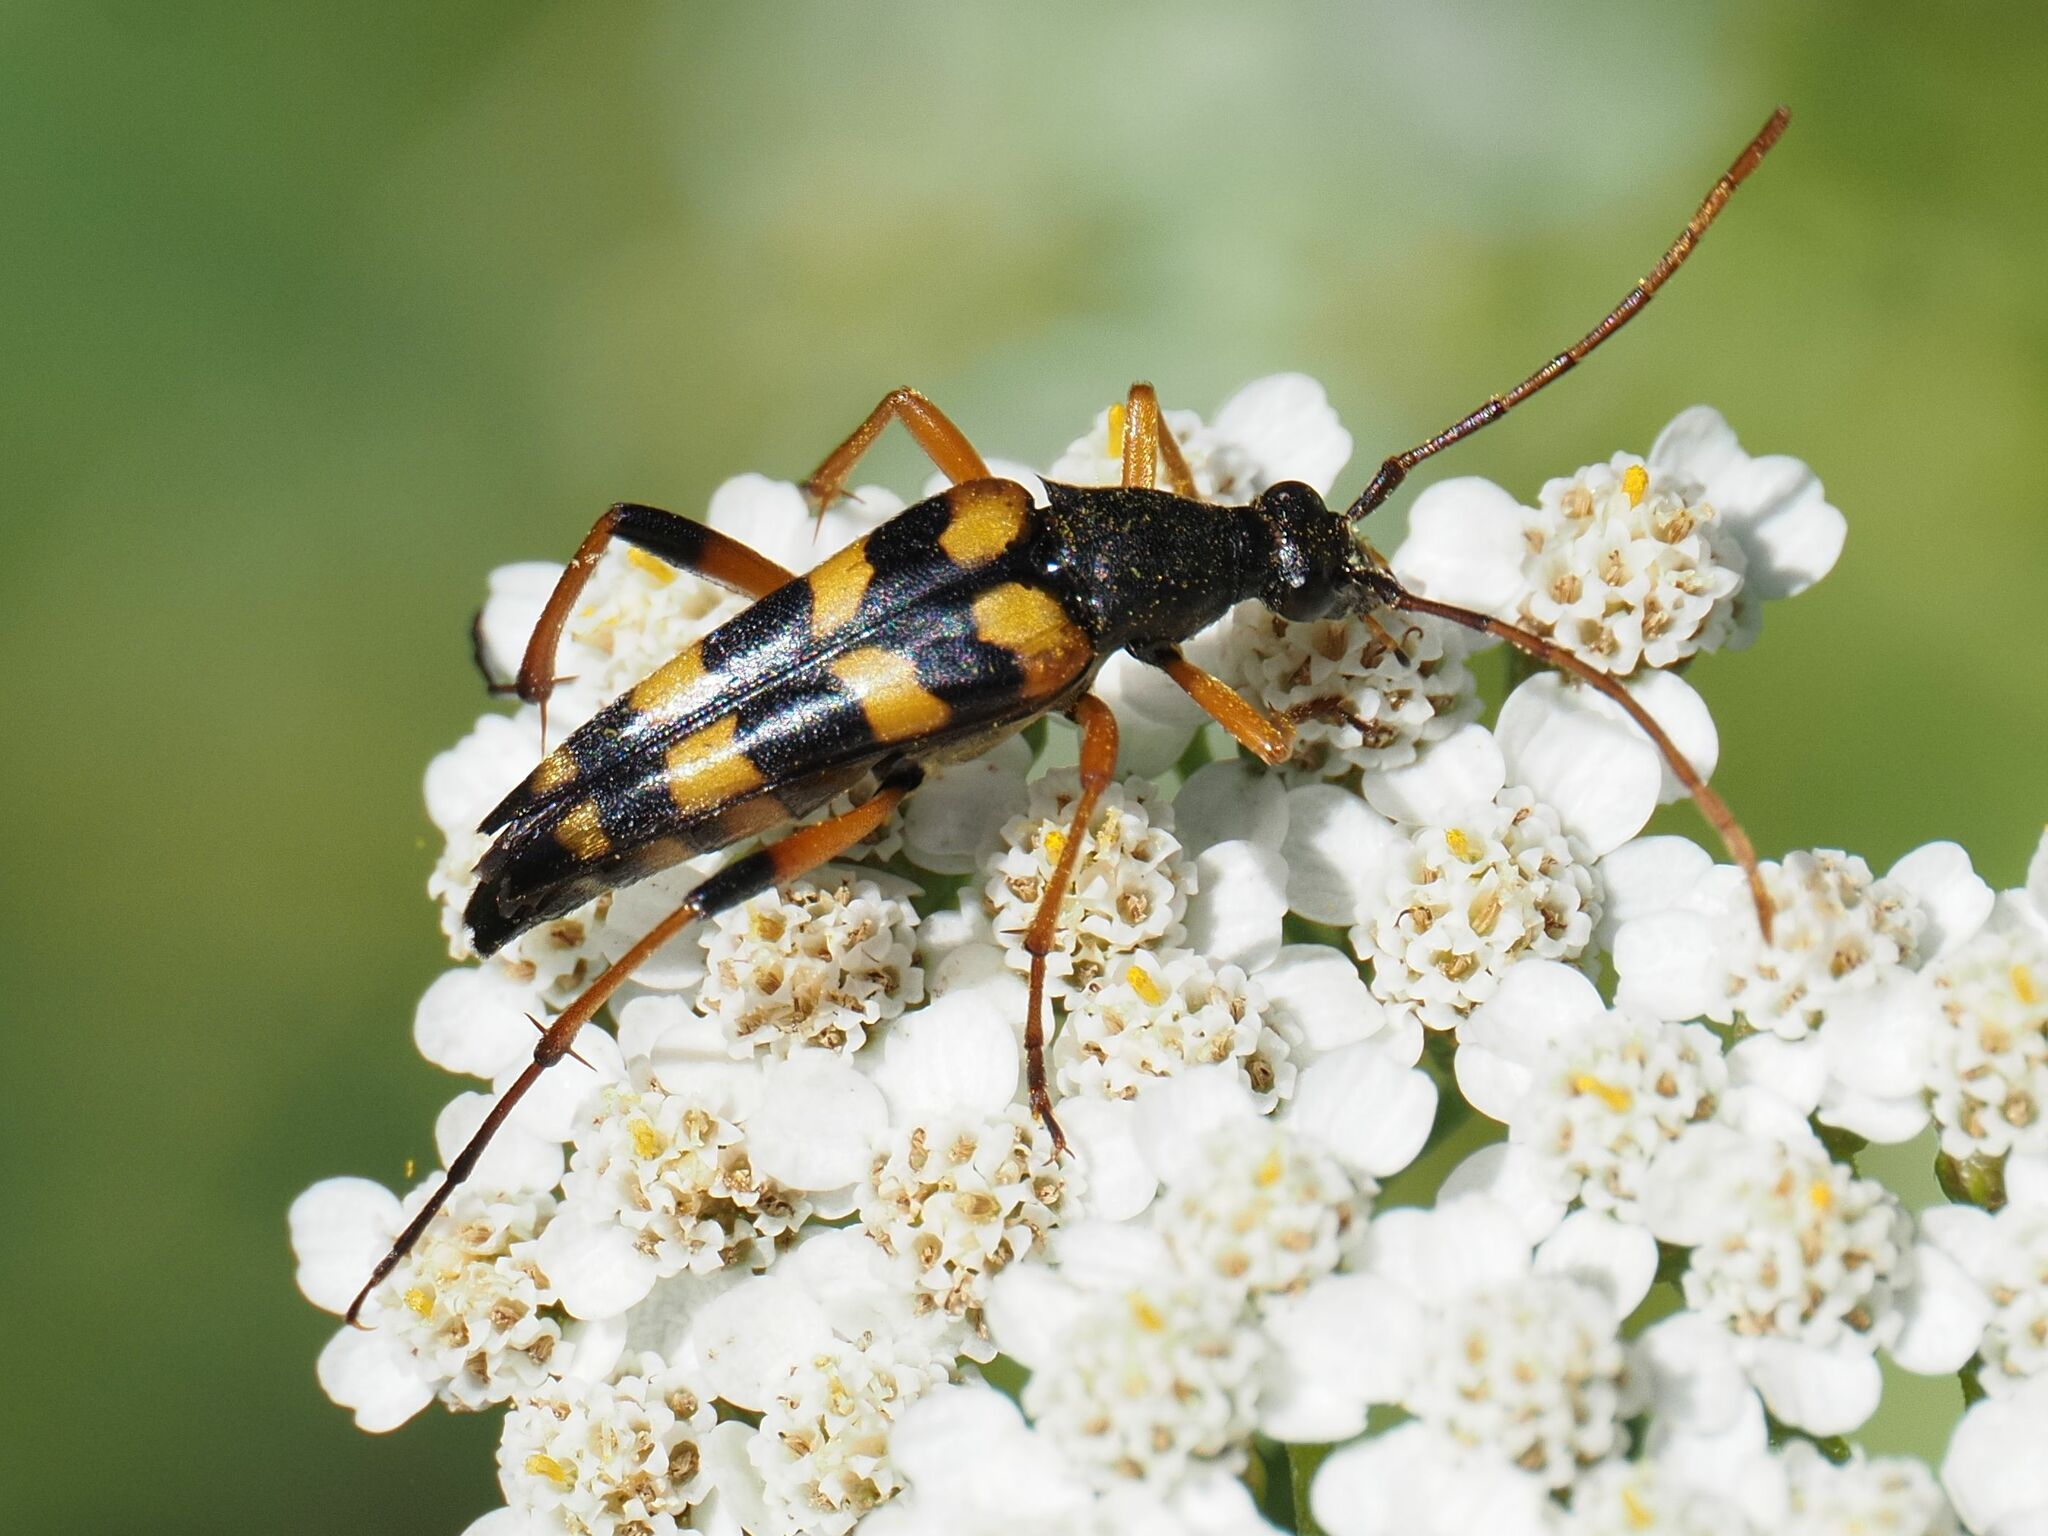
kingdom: Animalia
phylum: Arthropoda
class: Insecta
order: Coleoptera
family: Cerambycidae
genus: Strangalia
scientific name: Strangalia attenuata
